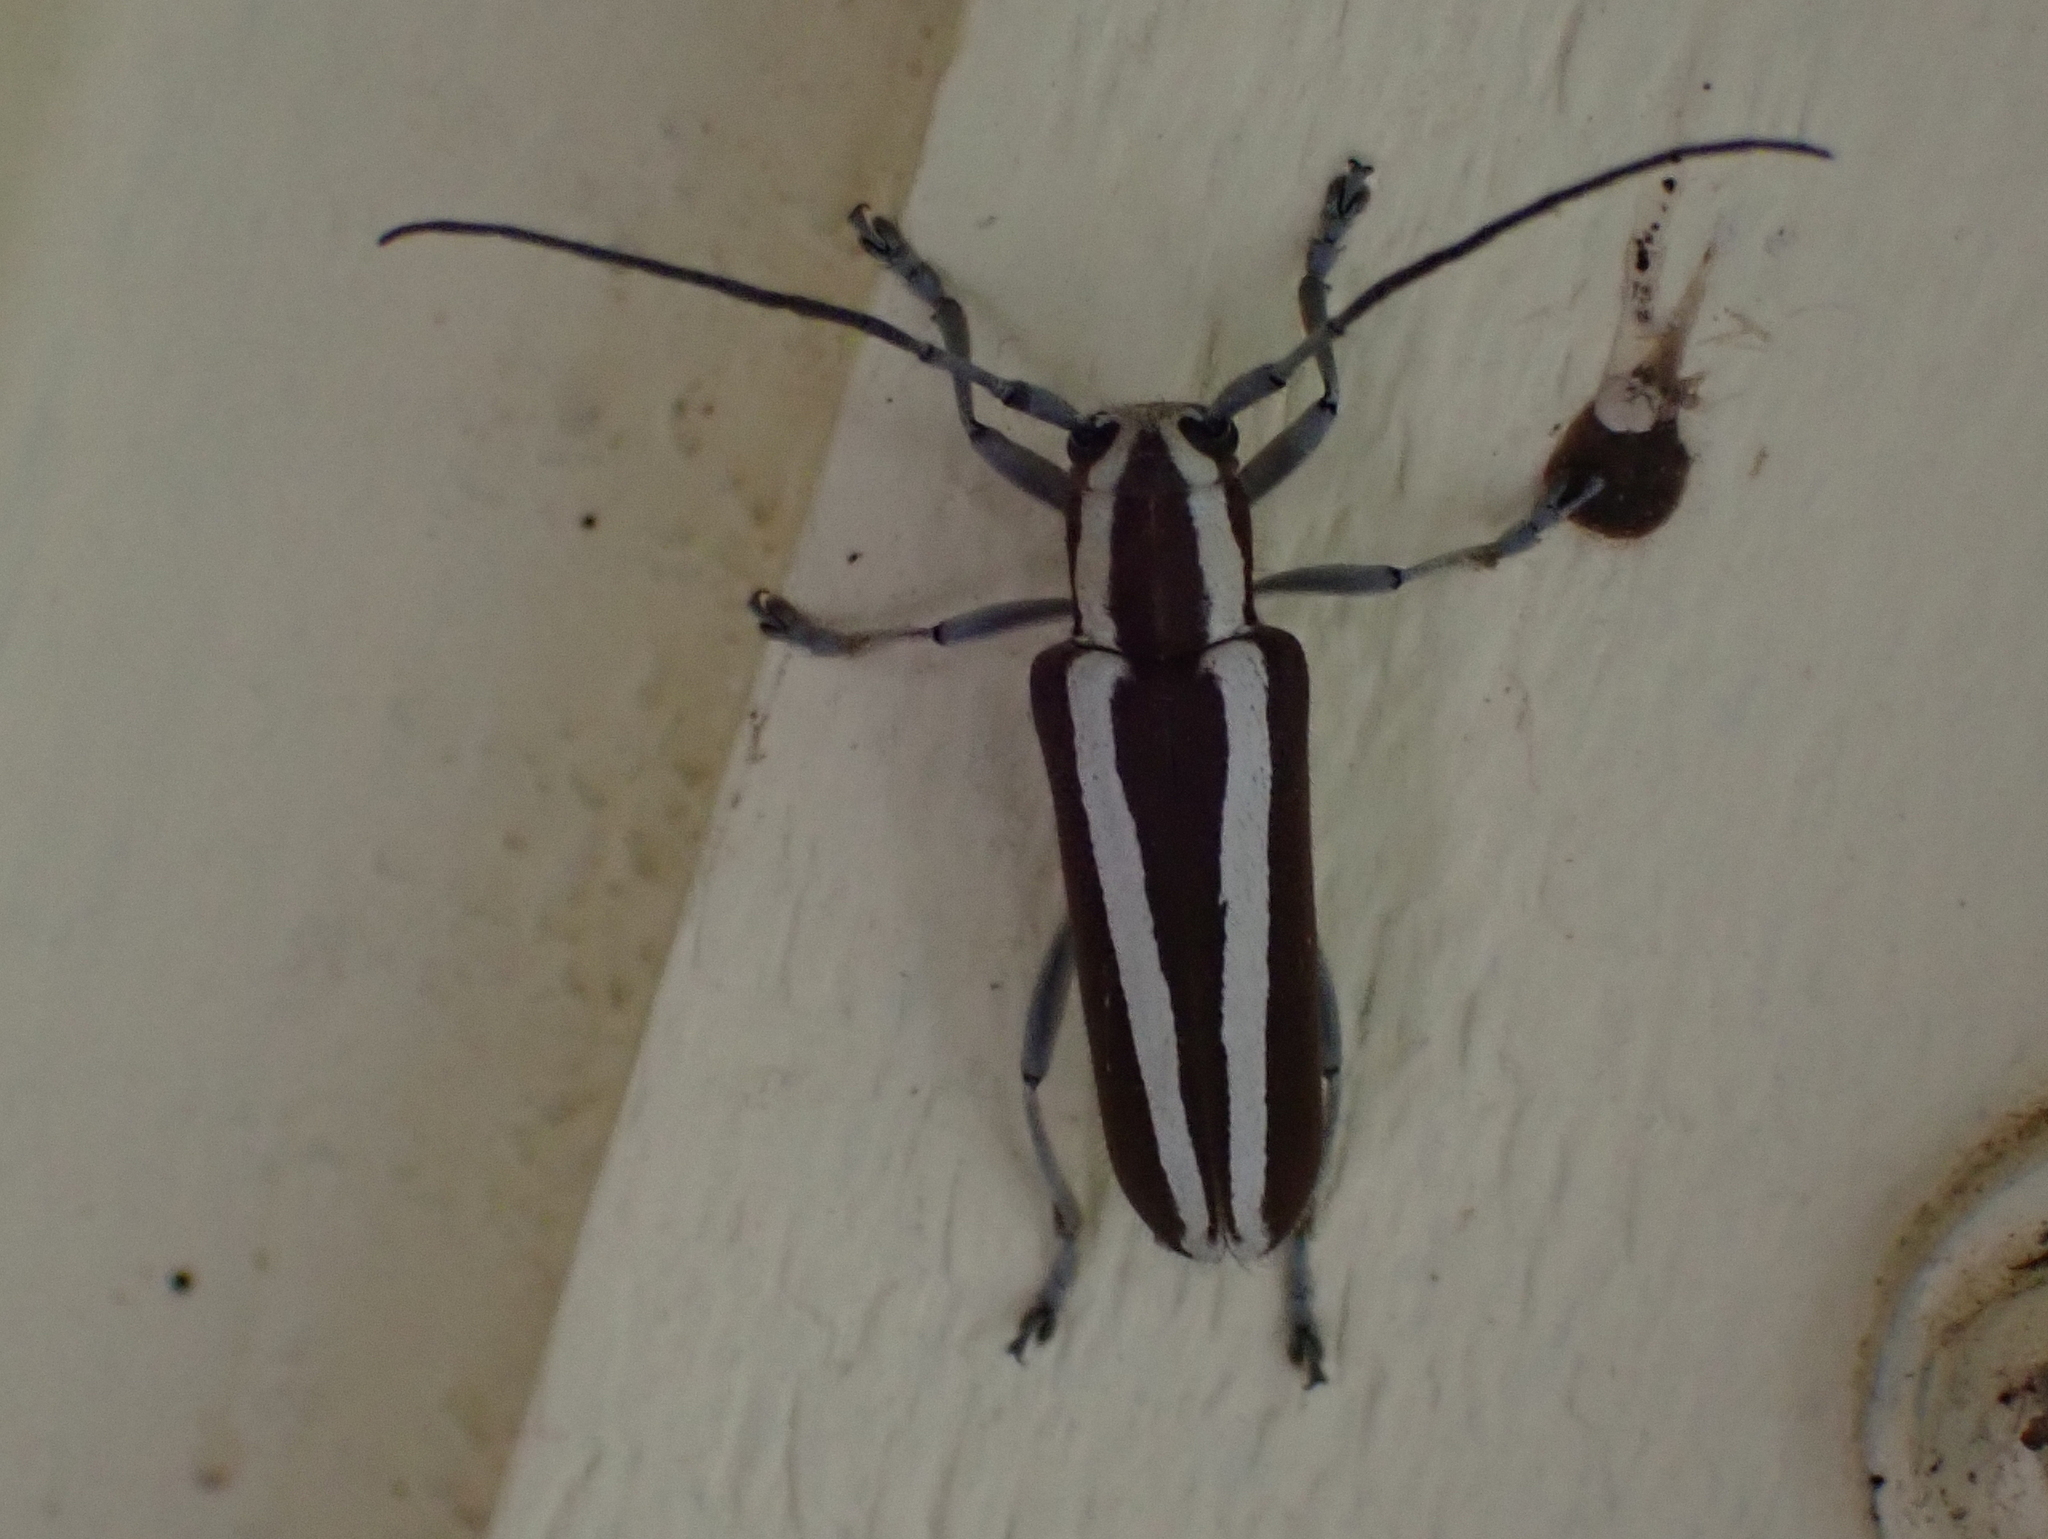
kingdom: Animalia
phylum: Arthropoda
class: Insecta
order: Coleoptera
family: Cerambycidae
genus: Saperda
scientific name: Saperda candida
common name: Round-headed borer
